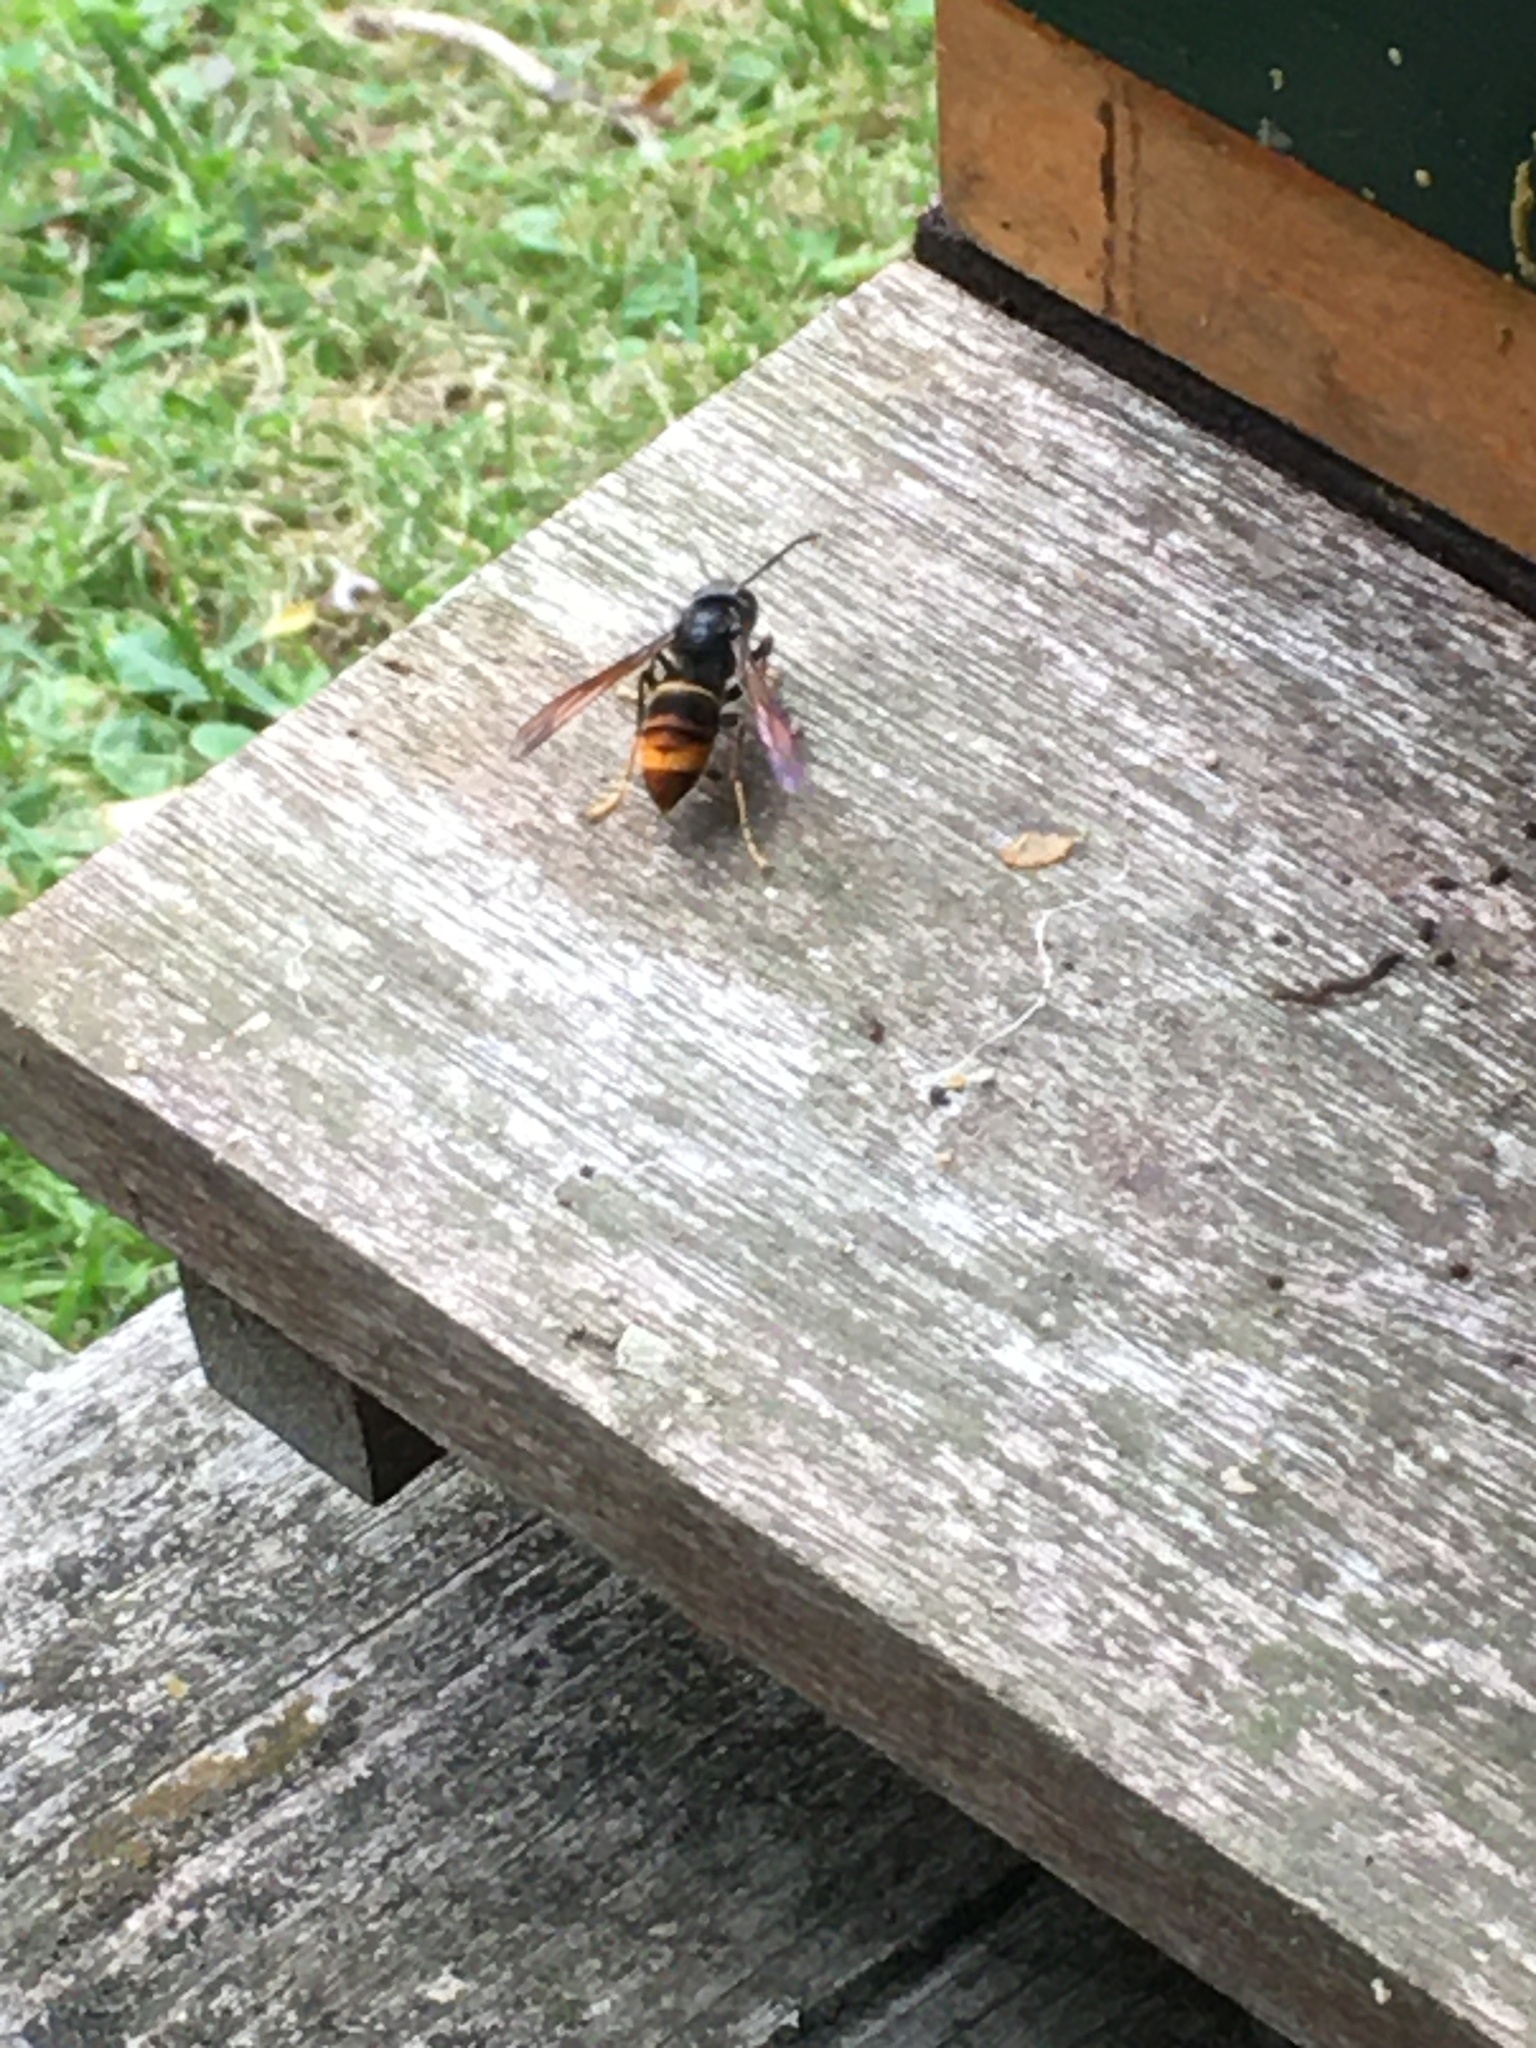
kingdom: Animalia
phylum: Arthropoda
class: Insecta
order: Hymenoptera
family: Vespidae
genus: Vespa
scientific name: Vespa velutina
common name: Asian hornet
